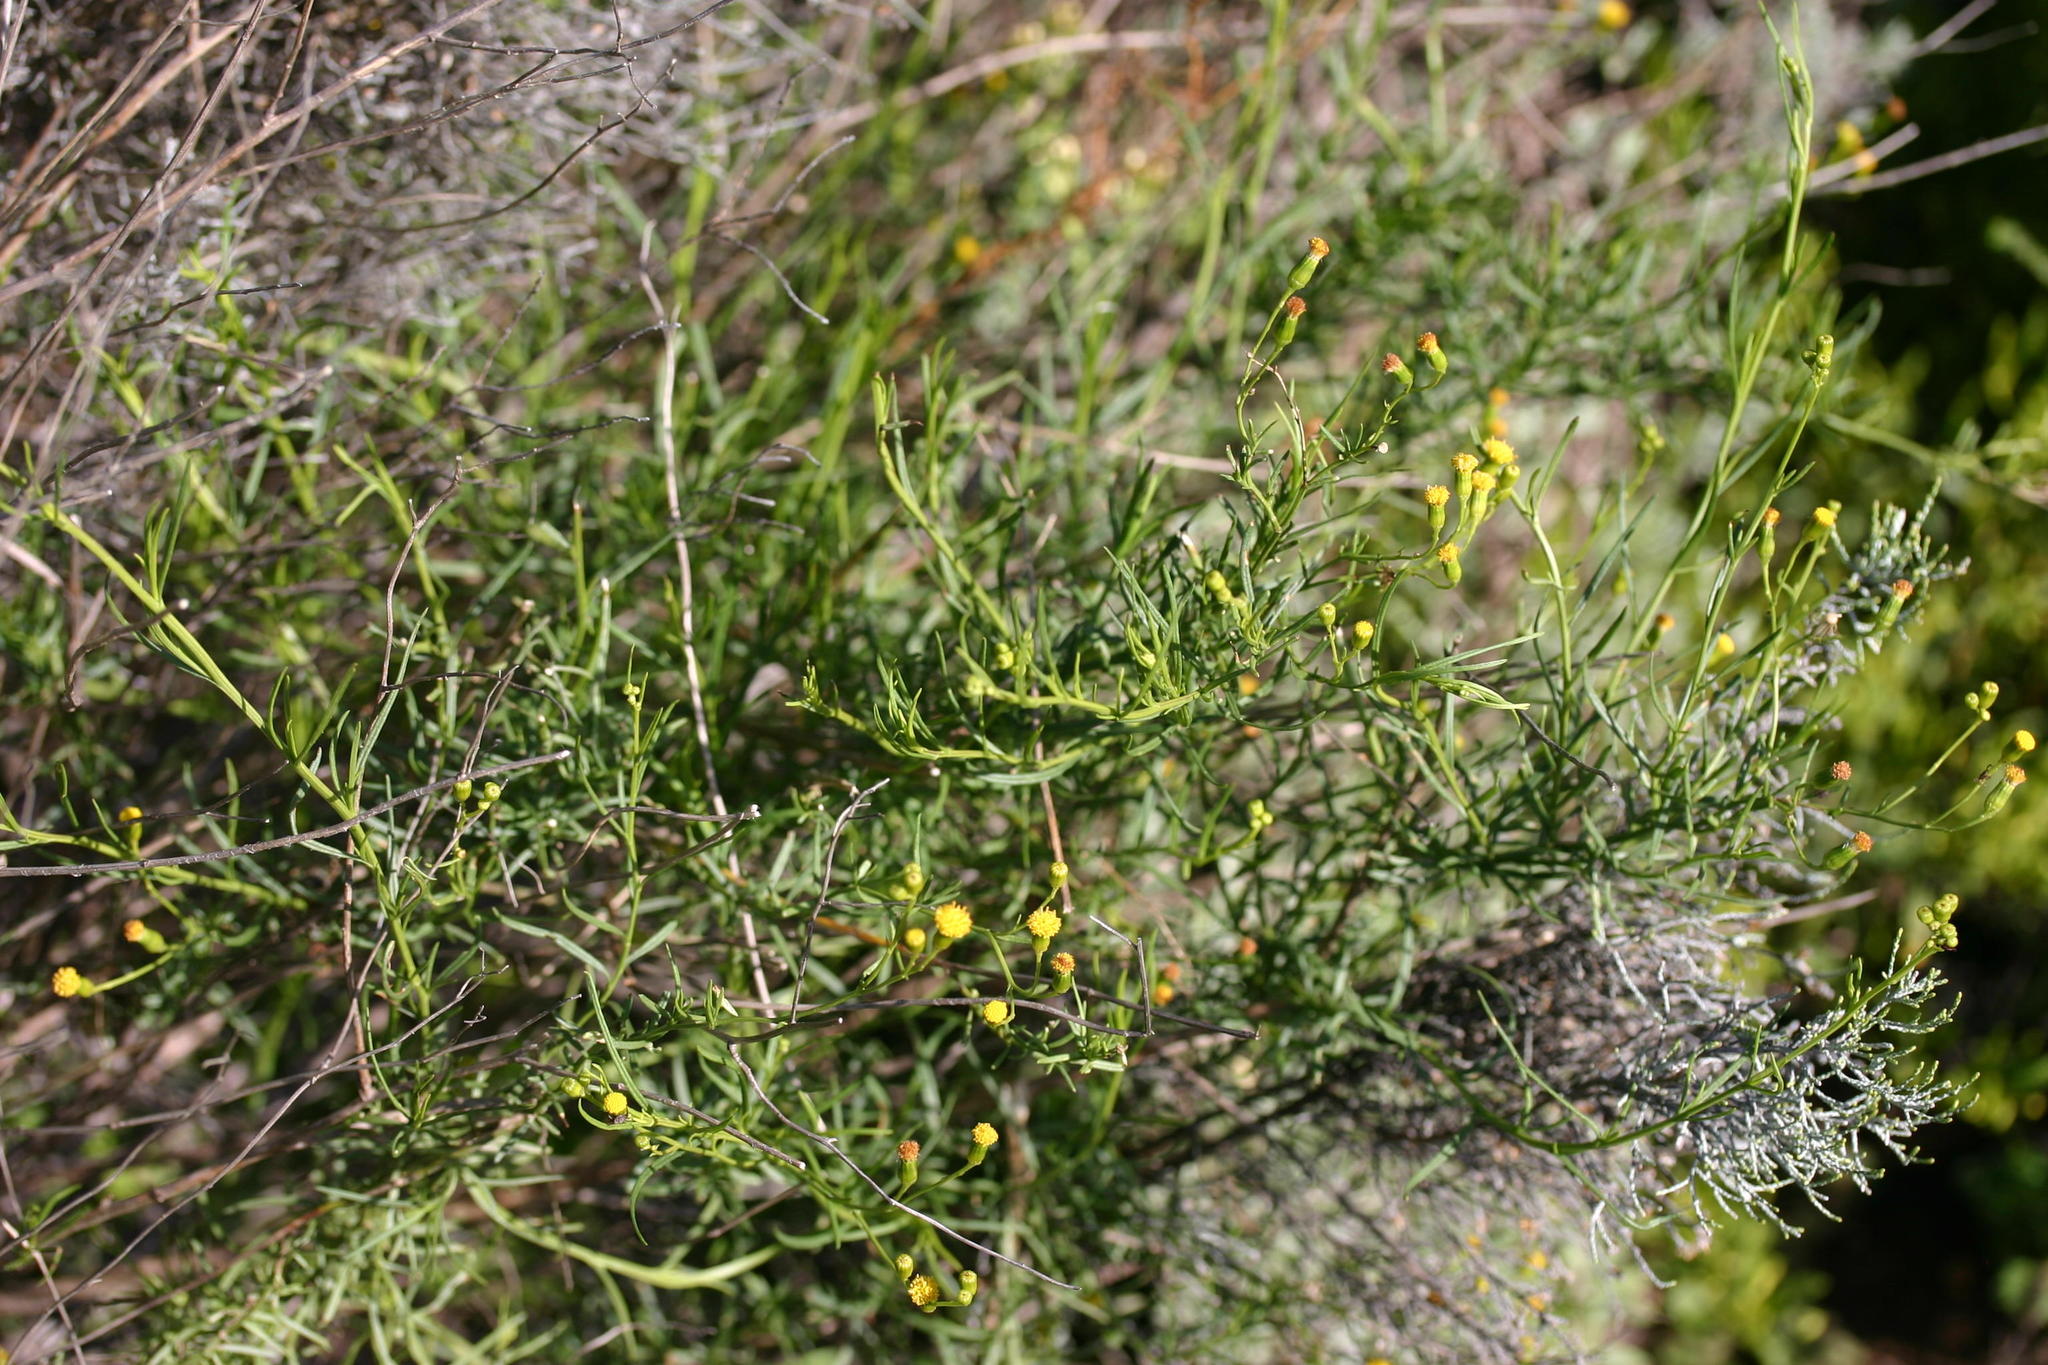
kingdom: Plantae
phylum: Tracheophyta
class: Magnoliopsida
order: Asterales
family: Asteraceae
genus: Senecio
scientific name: Senecio angustifolius
